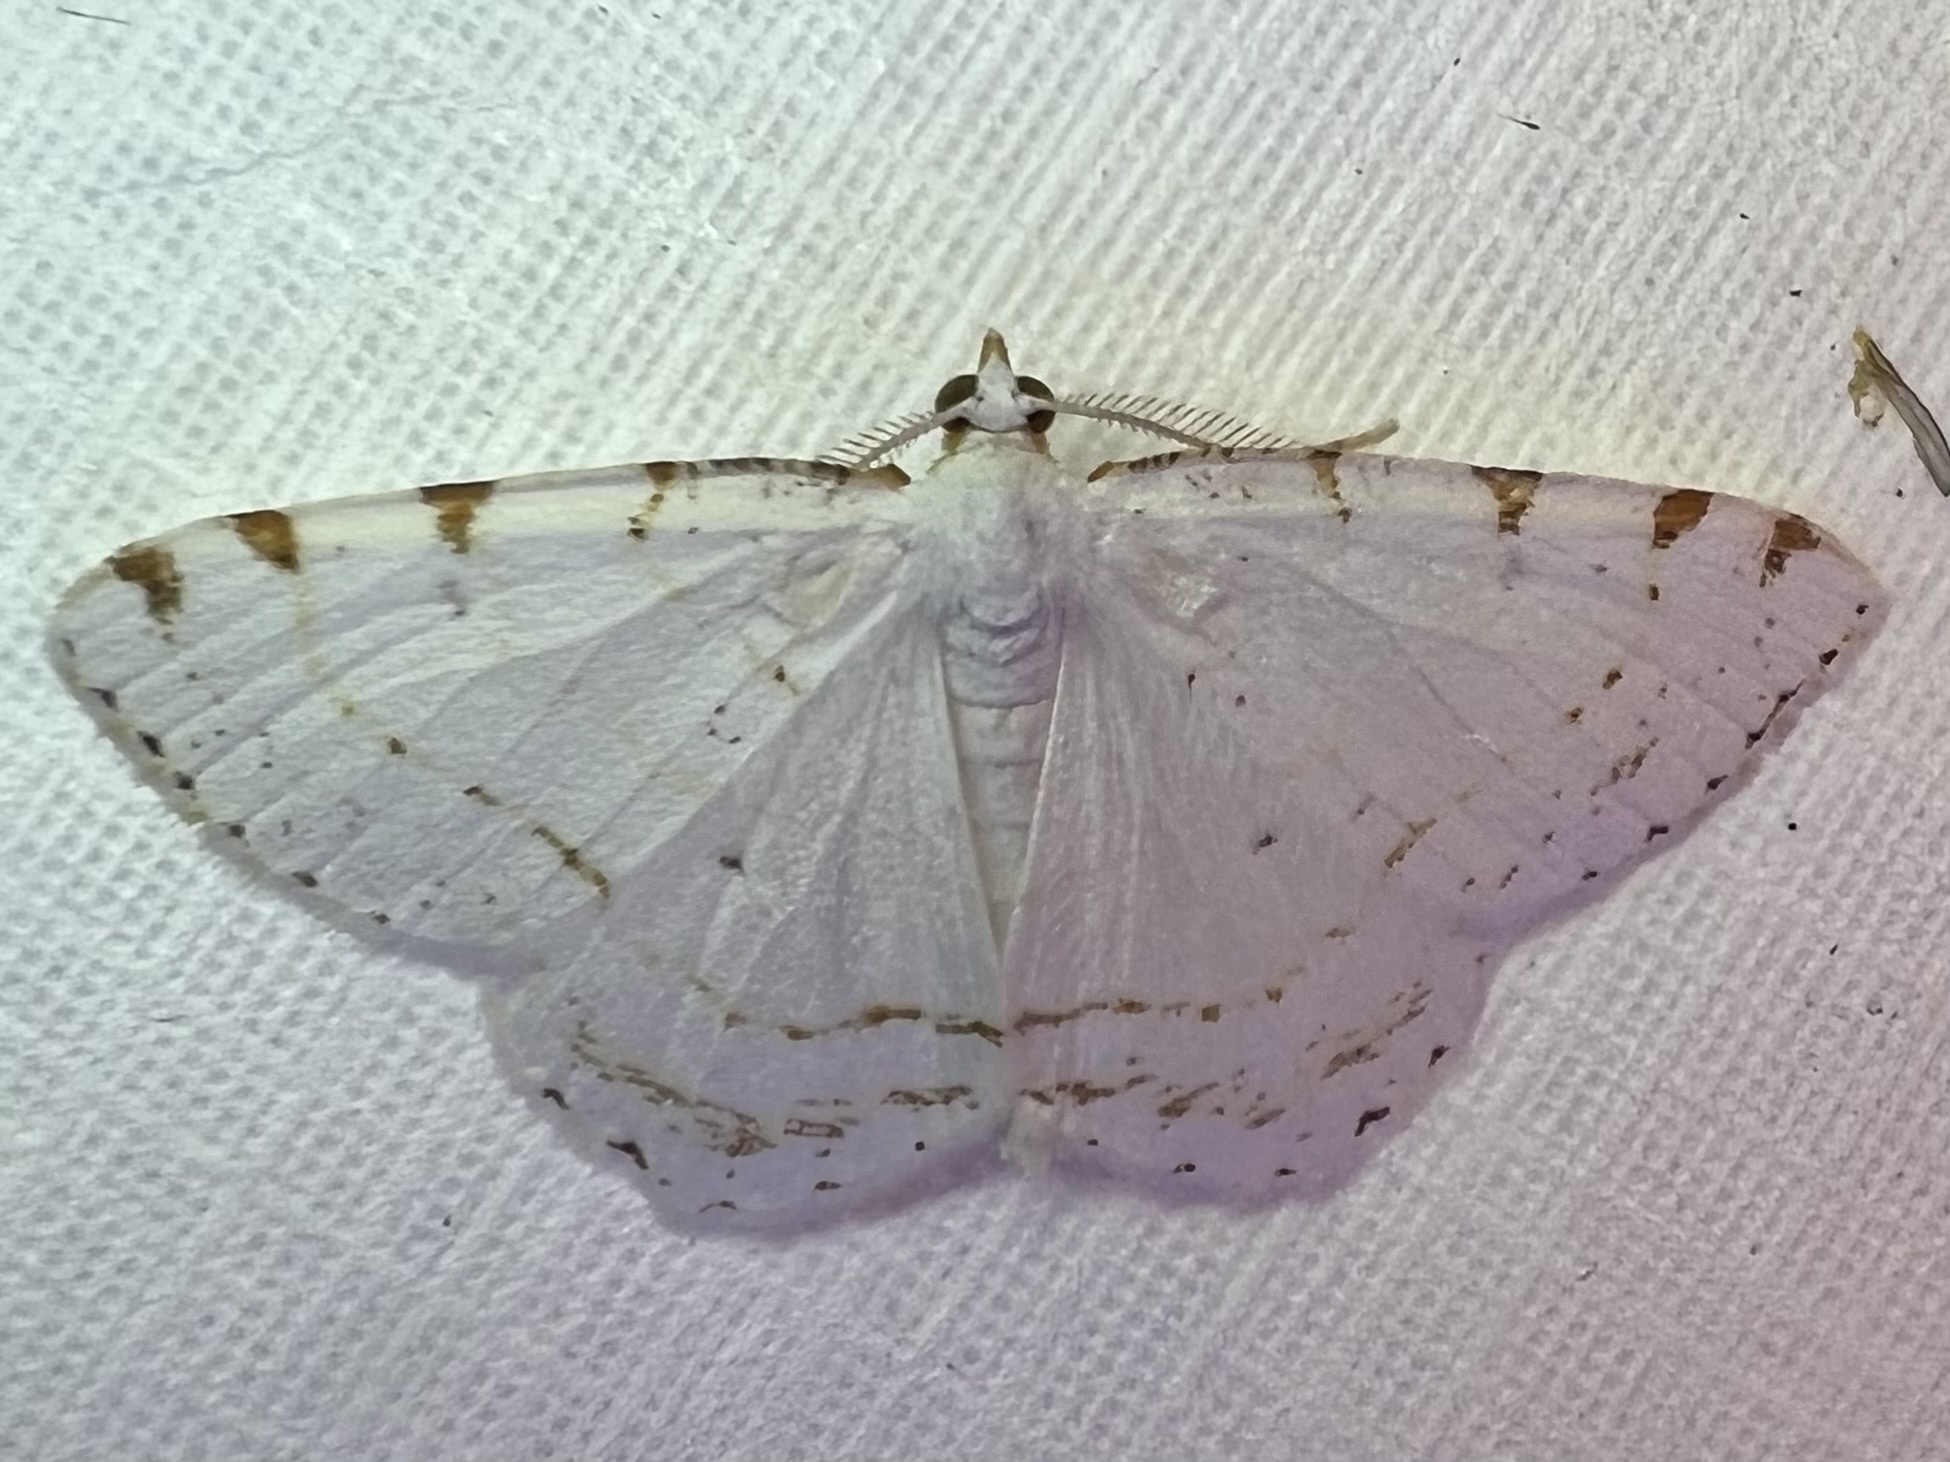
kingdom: Animalia
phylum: Arthropoda
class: Insecta
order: Lepidoptera
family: Geometridae
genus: Macaria
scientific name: Macaria pustularia
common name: Lesser maple spanworm moth
